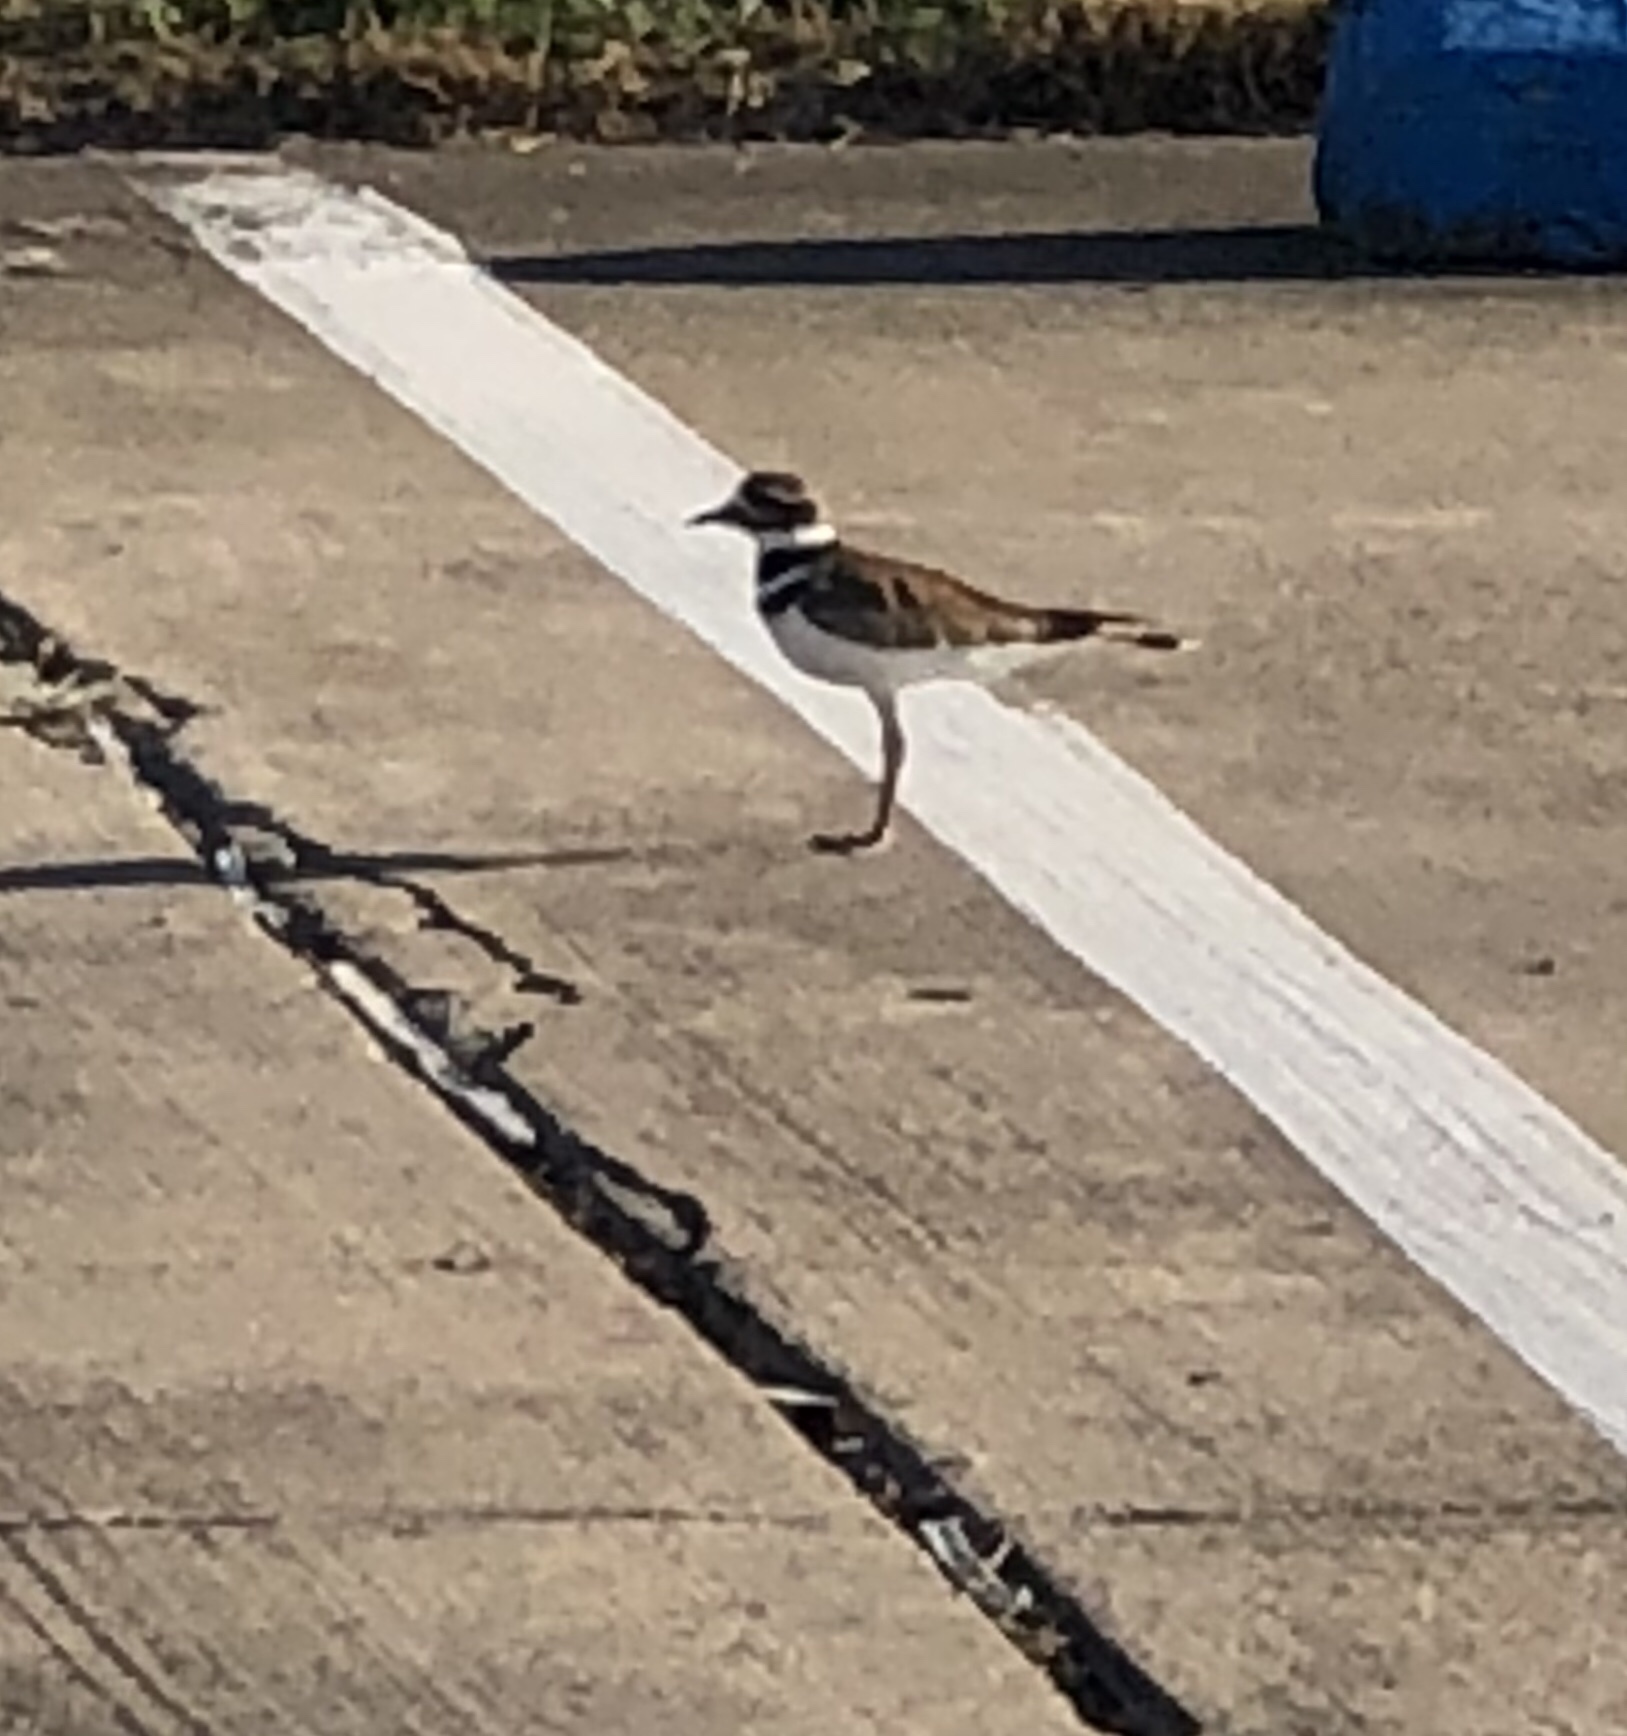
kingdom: Animalia
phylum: Chordata
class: Aves
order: Charadriiformes
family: Charadriidae
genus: Charadrius
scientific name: Charadrius vociferus
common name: Killdeer
